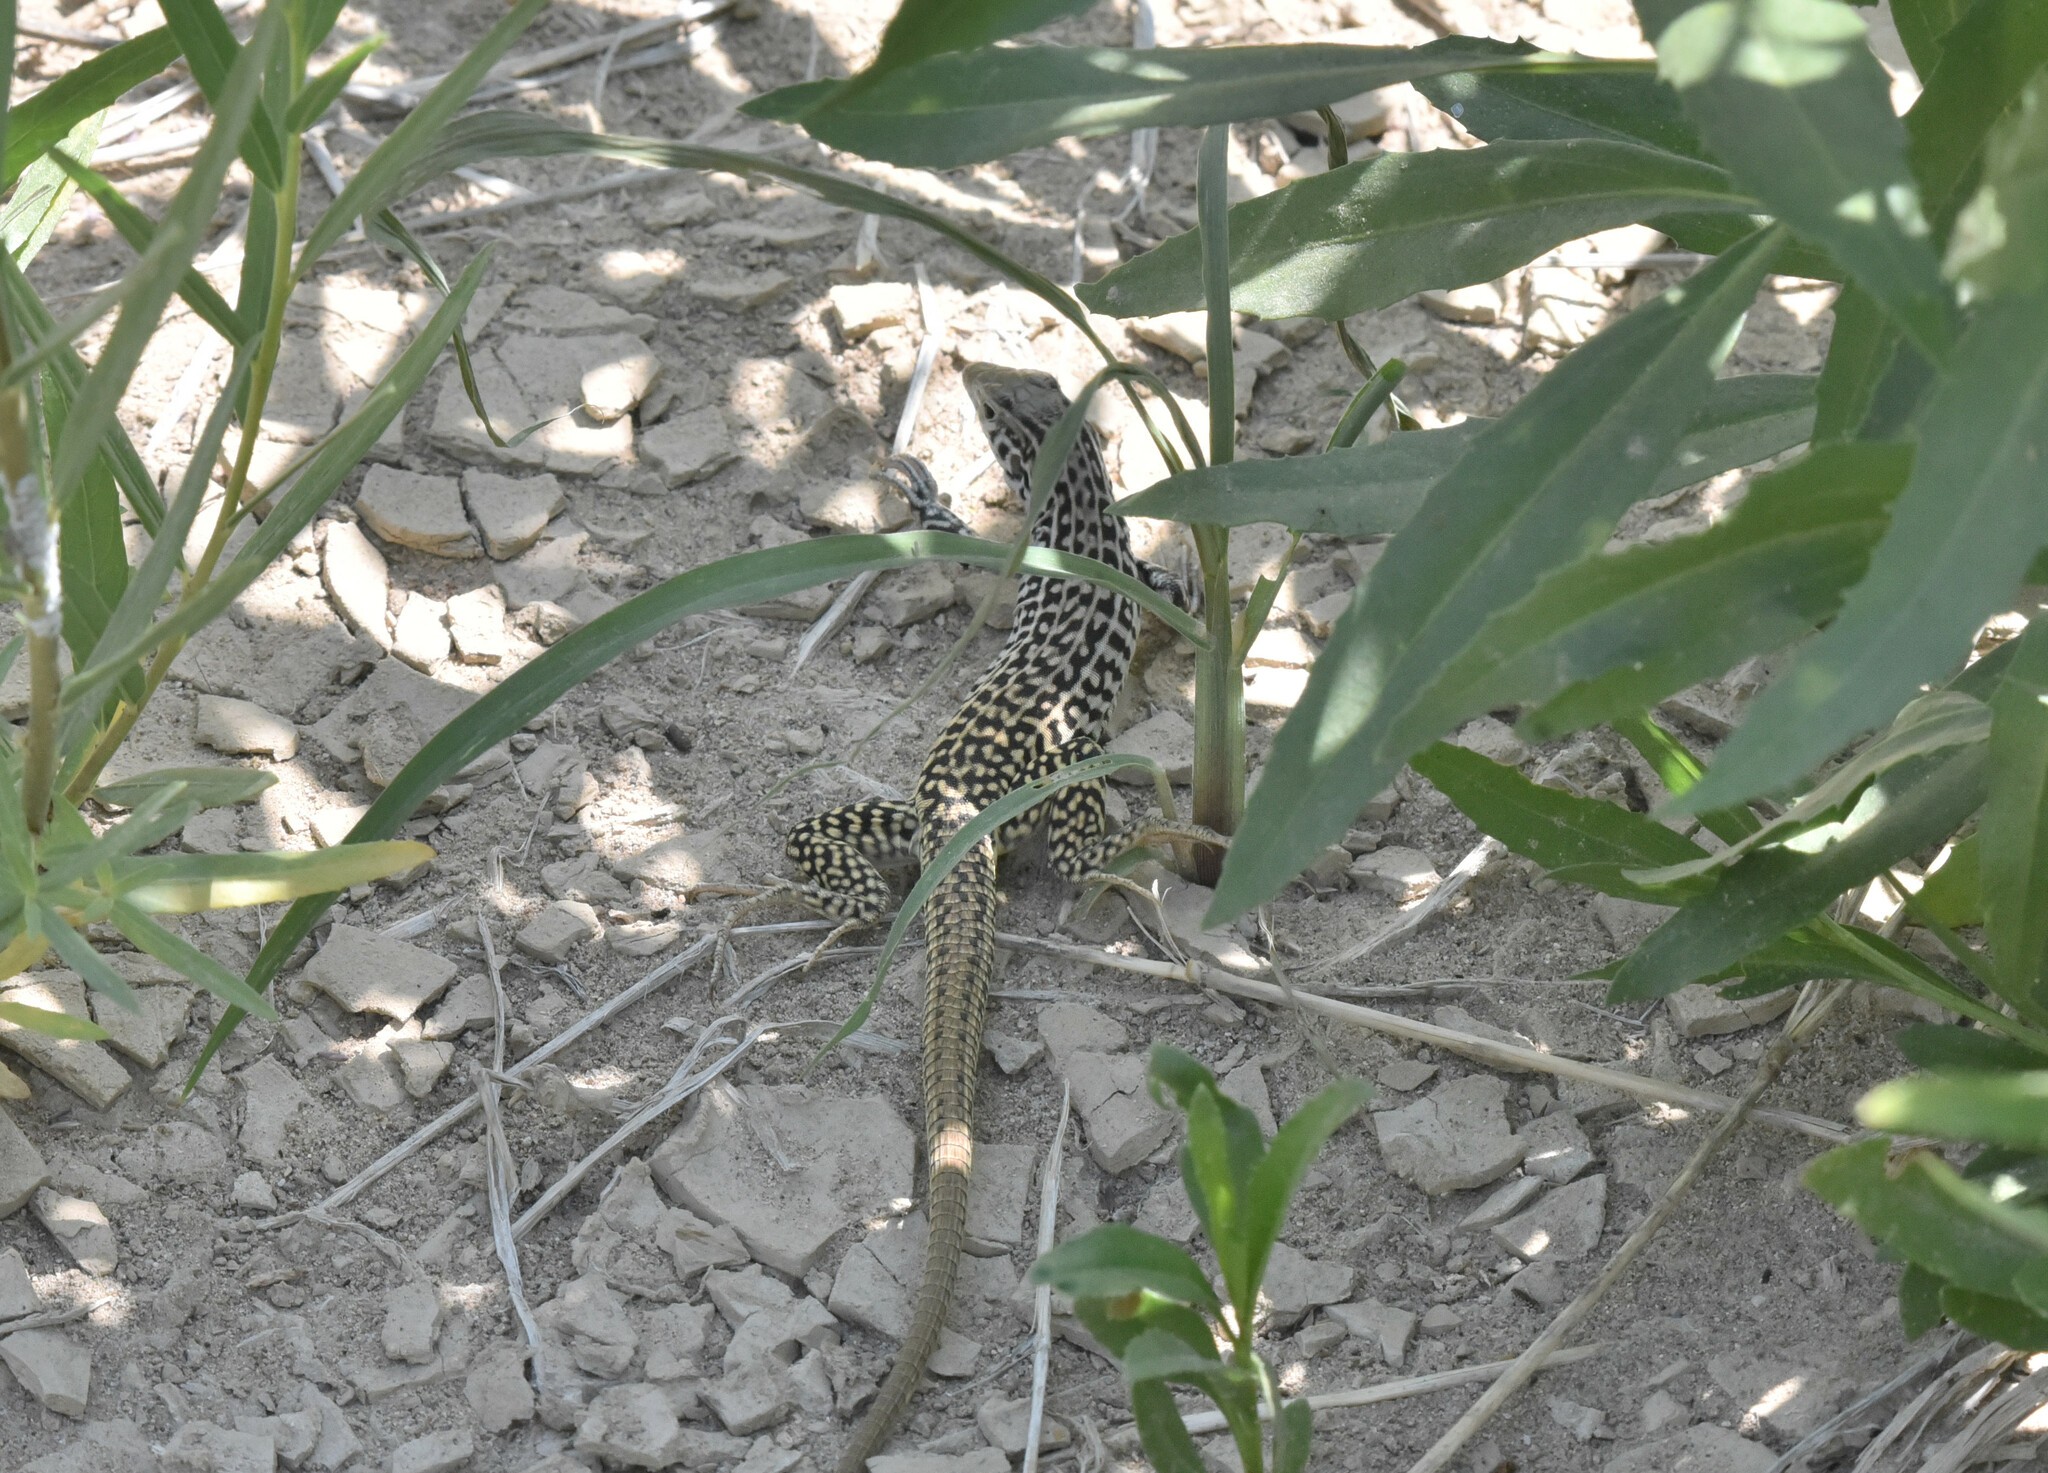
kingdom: Animalia
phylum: Chordata
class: Squamata
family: Teiidae
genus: Aspidoscelis
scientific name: Aspidoscelis tesselatus
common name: Common checkered whiptail [tesselata]
